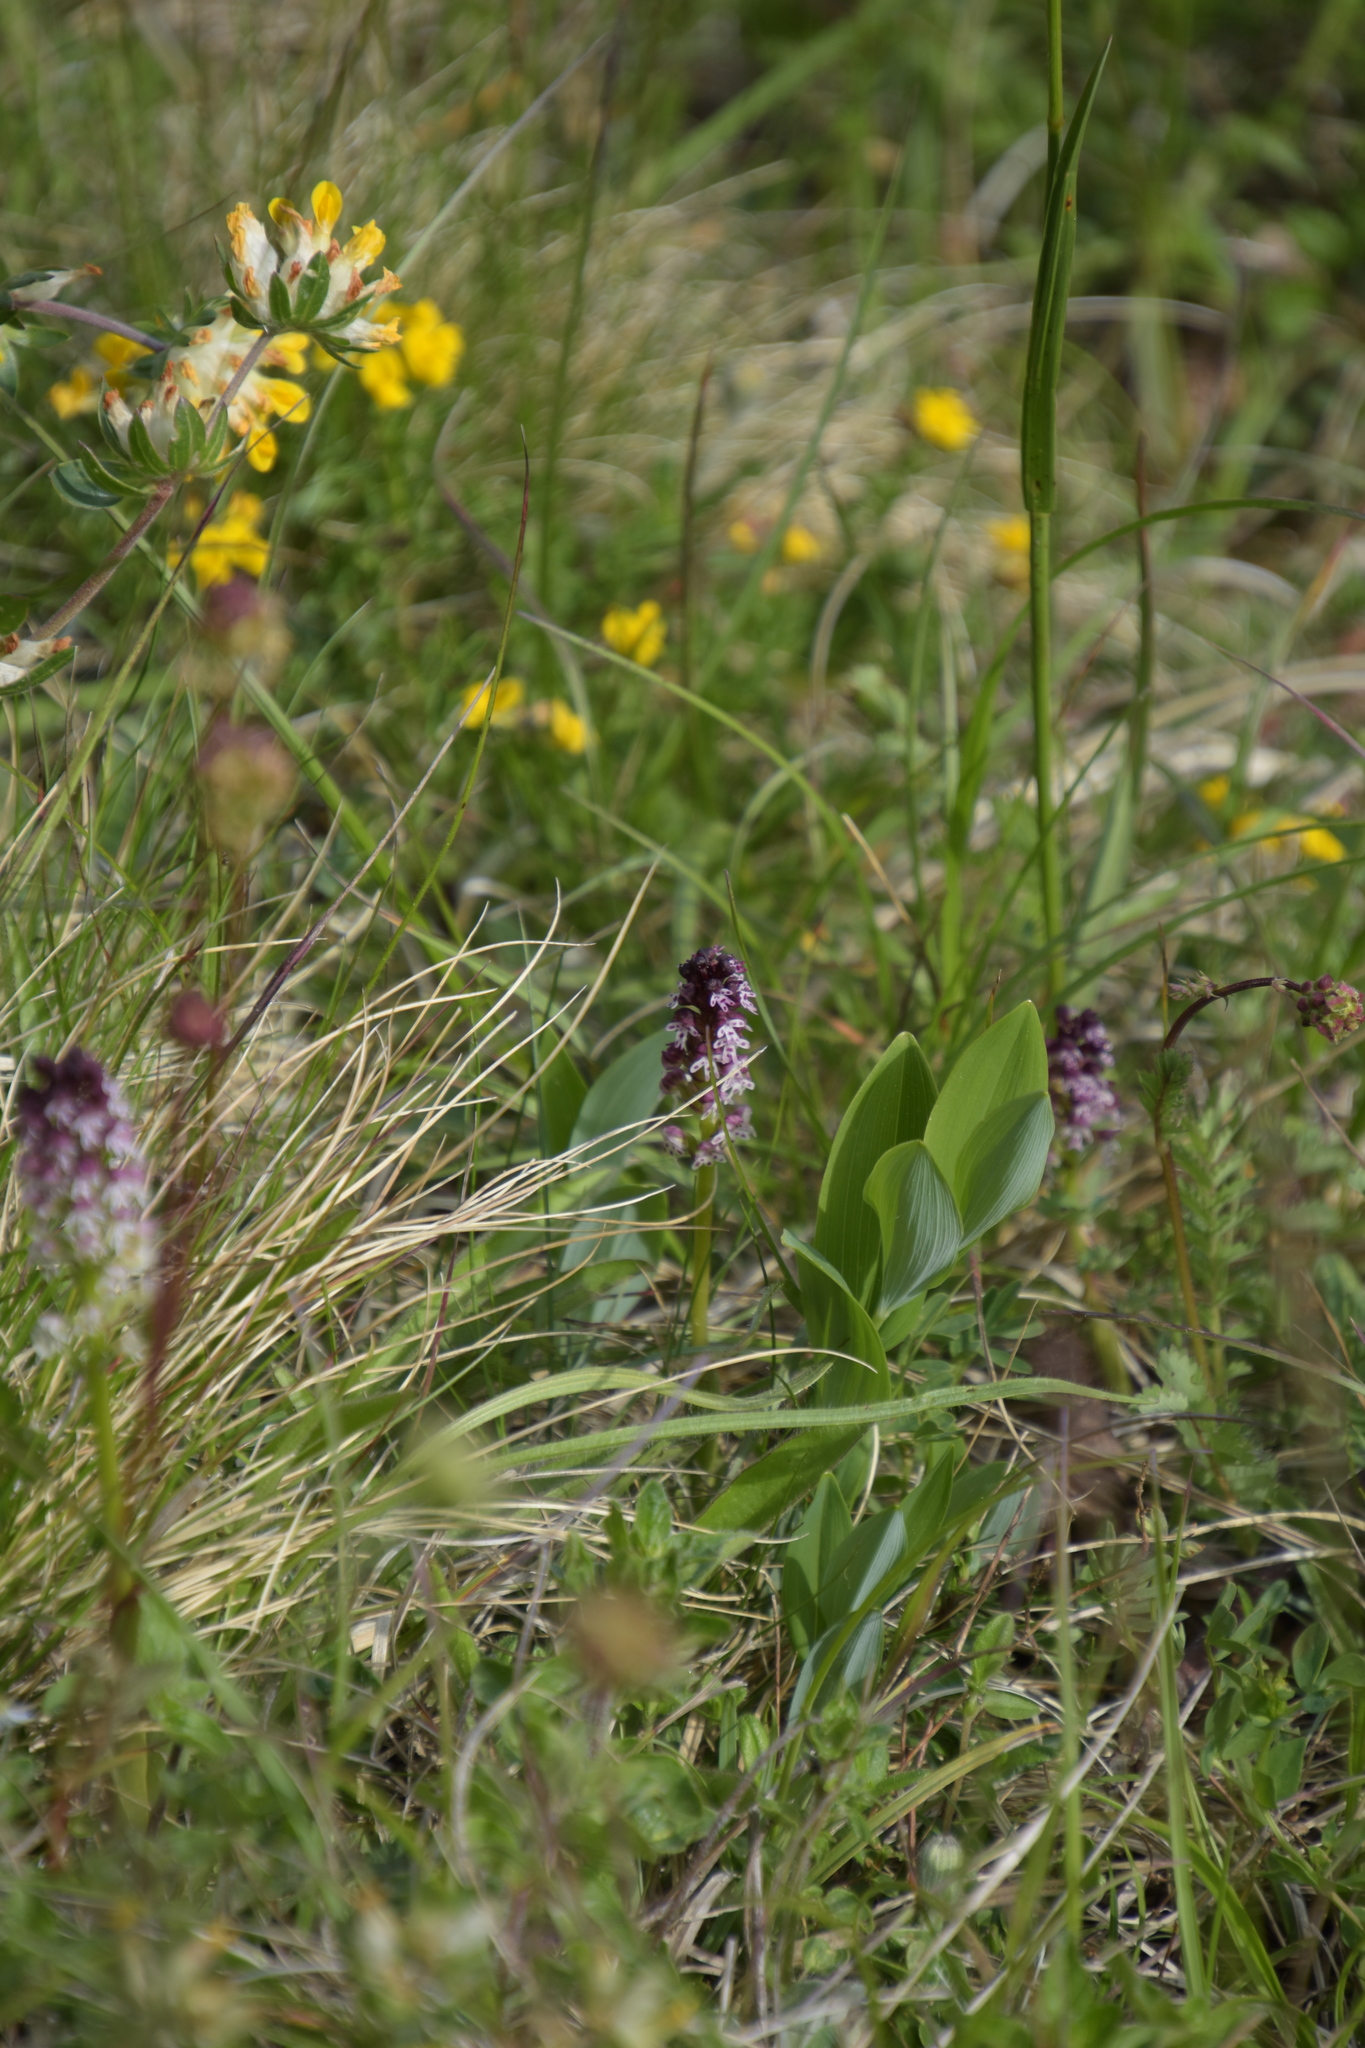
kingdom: Plantae
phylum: Tracheophyta
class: Liliopsida
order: Asparagales
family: Orchidaceae
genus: Neotinea
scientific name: Neotinea ustulata
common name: Burnt orchid
